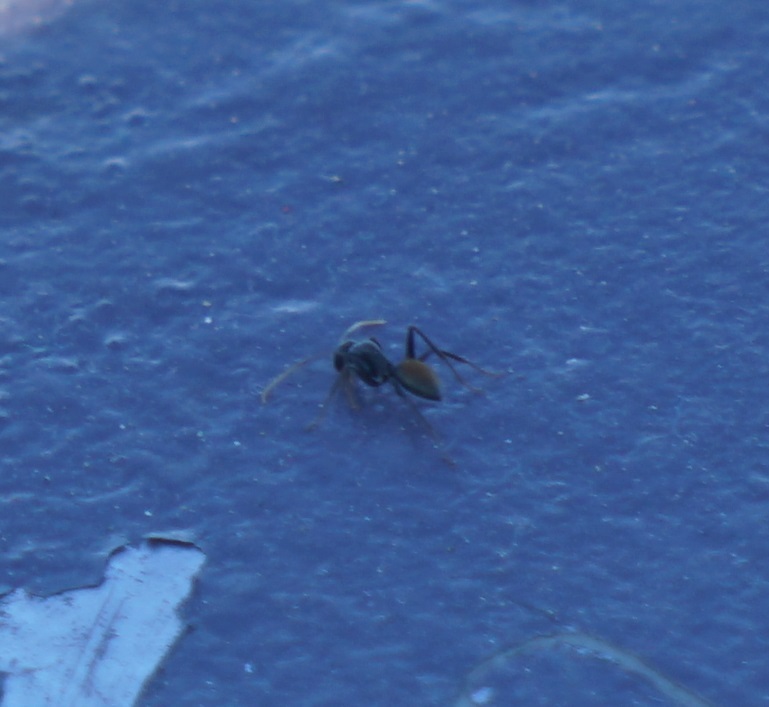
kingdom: Animalia
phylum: Arthropoda
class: Insecta
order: Hymenoptera
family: Formicidae
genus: Camponotus
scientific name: Camponotus aeneopilosus
